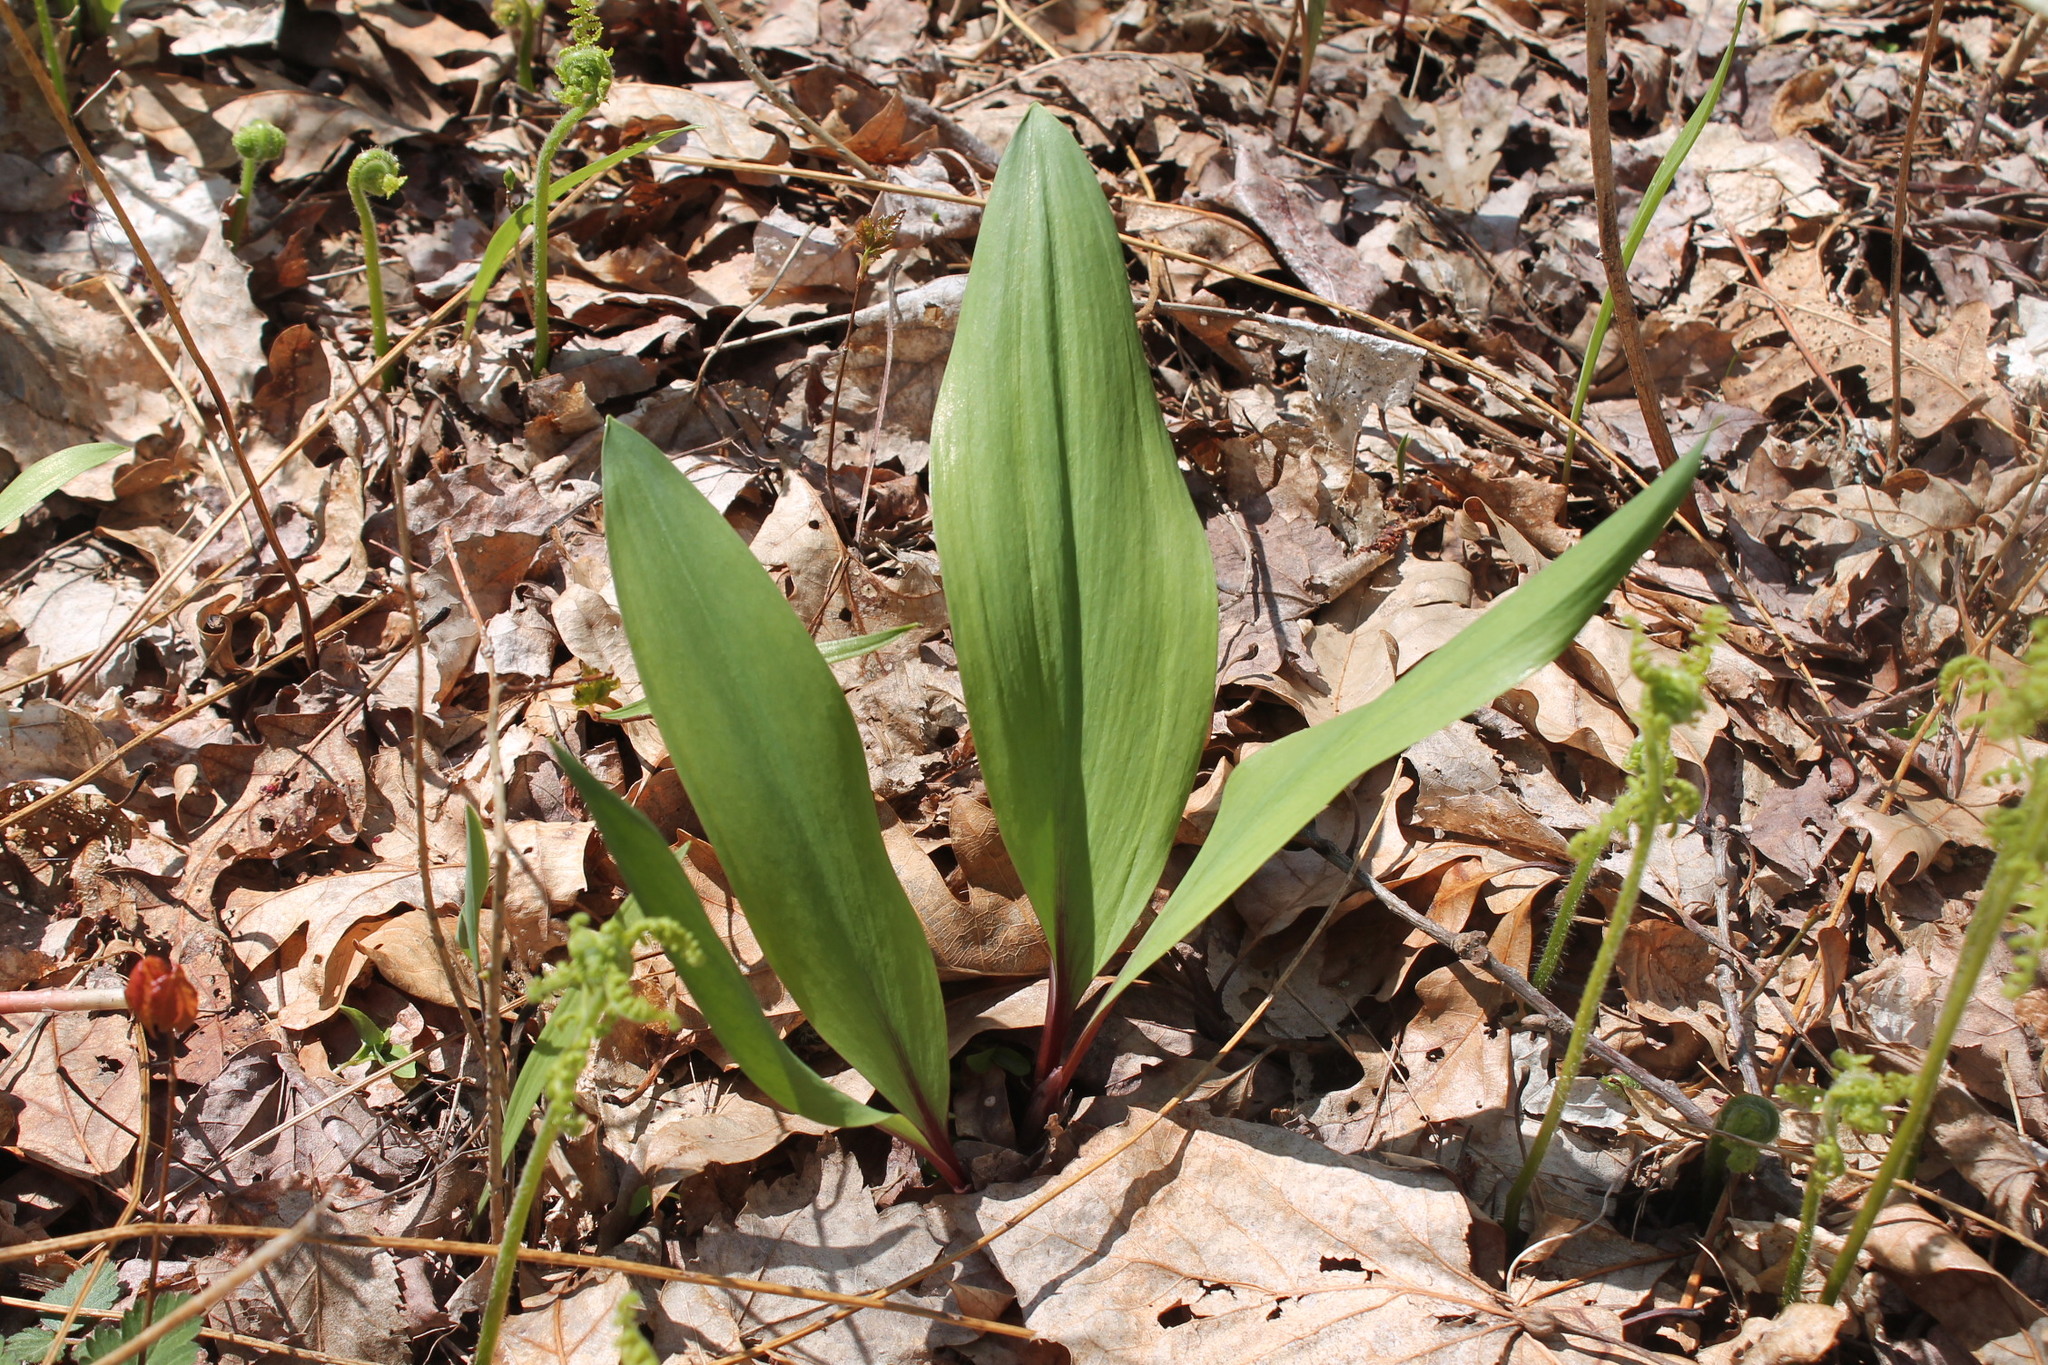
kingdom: Plantae
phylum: Tracheophyta
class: Liliopsida
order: Asparagales
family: Amaryllidaceae
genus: Allium
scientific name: Allium tricoccum
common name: Ramp
